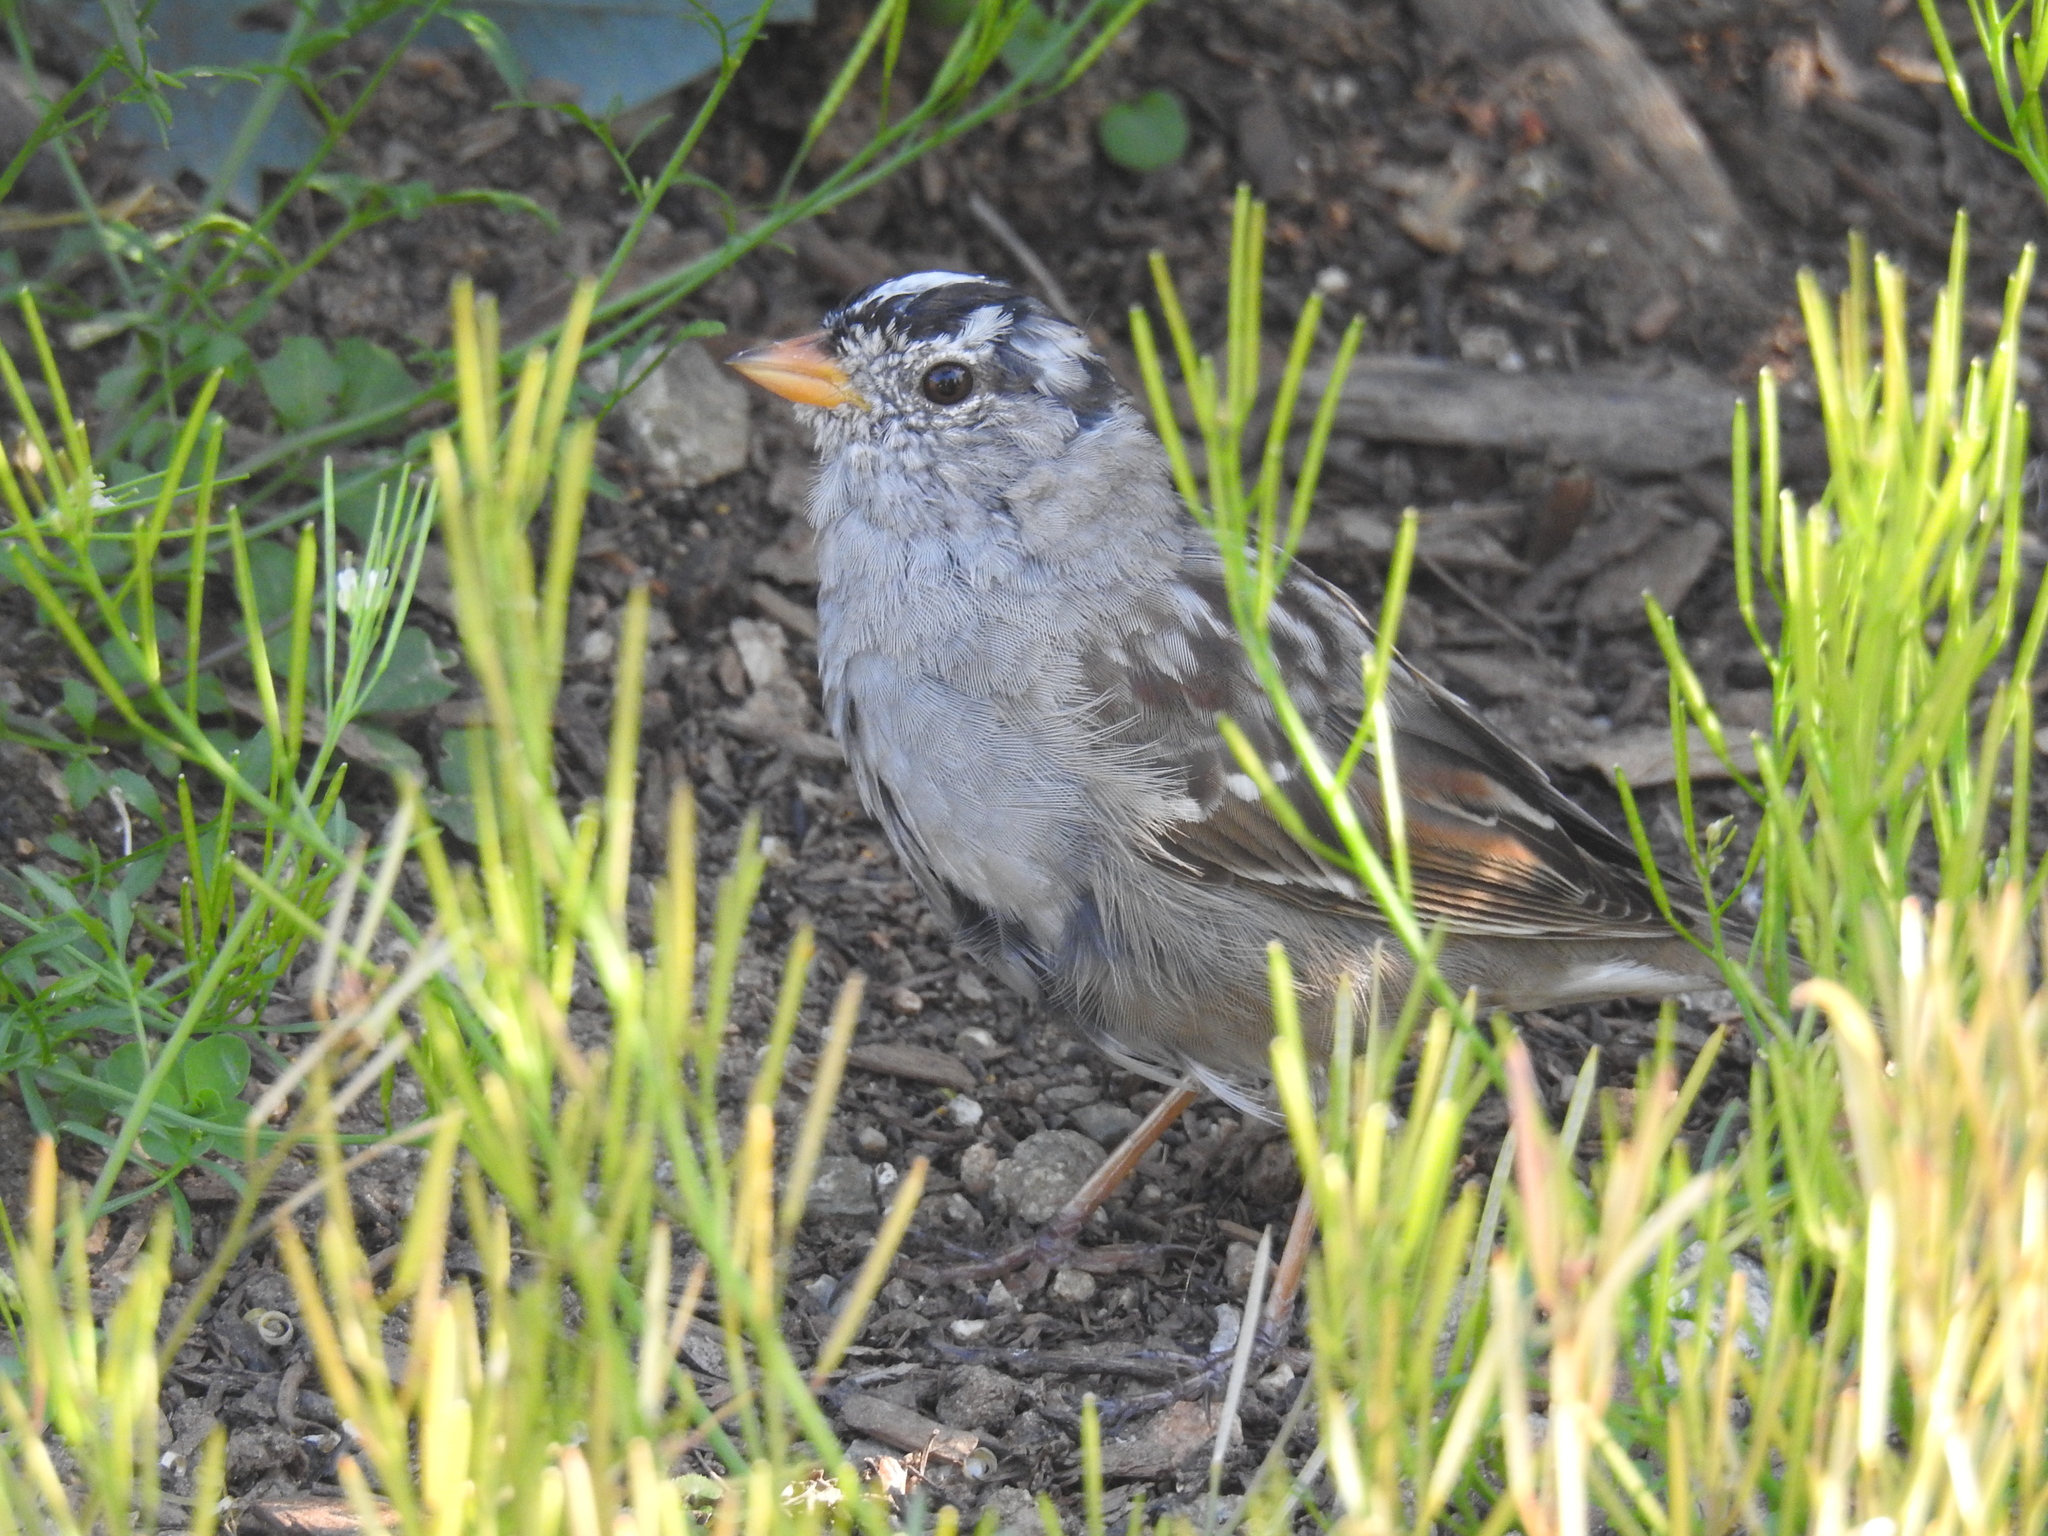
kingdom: Animalia
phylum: Chordata
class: Aves
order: Passeriformes
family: Passerellidae
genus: Zonotrichia
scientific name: Zonotrichia leucophrys
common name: White-crowned sparrow
